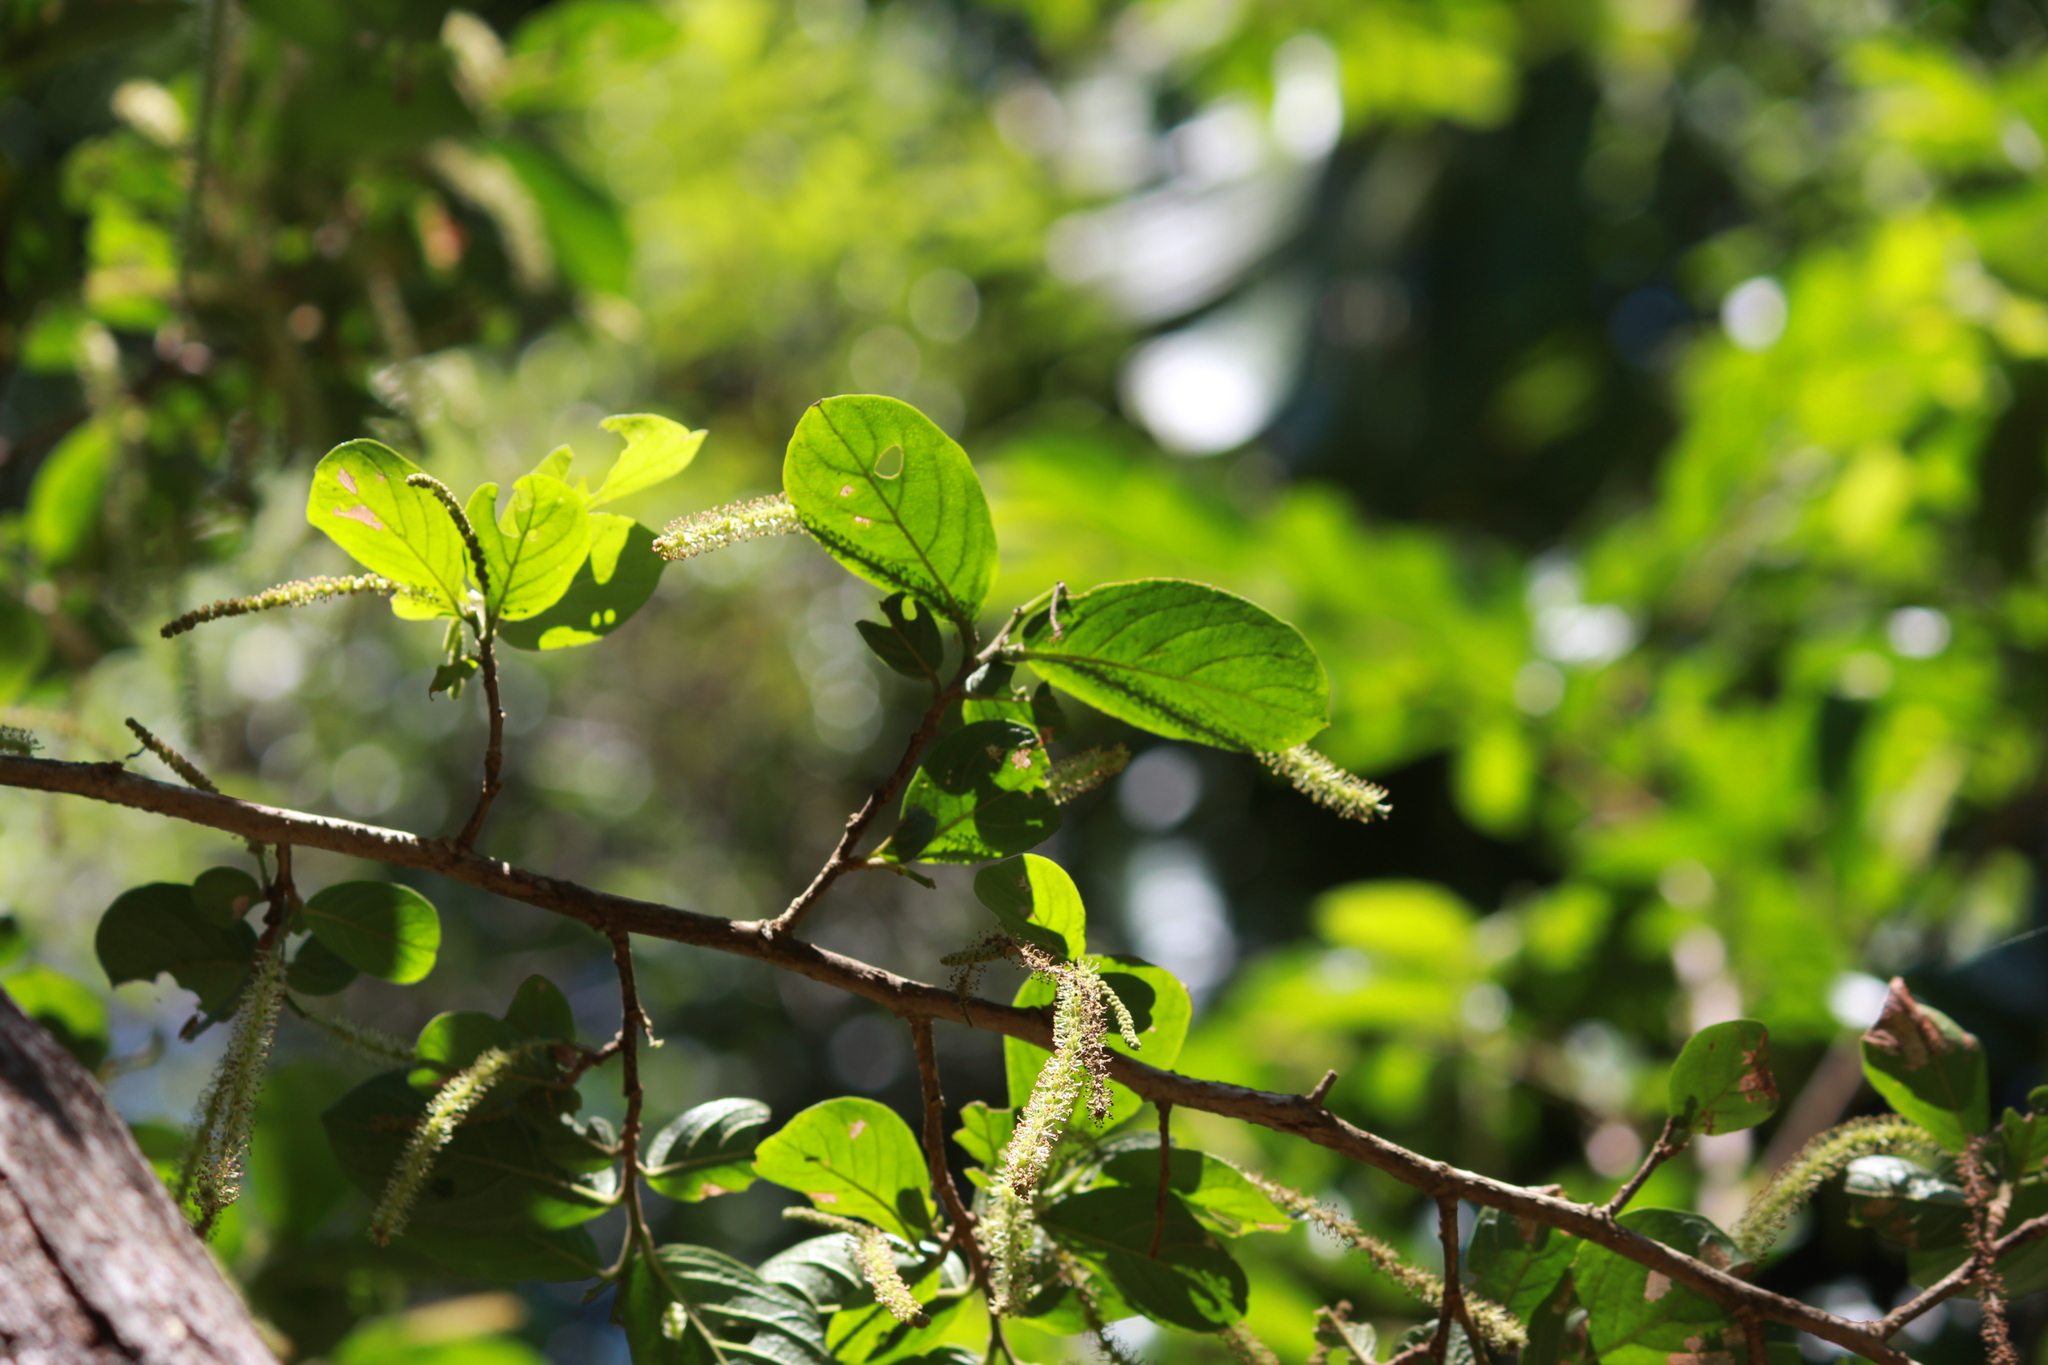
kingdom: Plantae
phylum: Tracheophyta
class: Magnoliopsida
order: Malpighiales
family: Phyllanthaceae
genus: Antidesma
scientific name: Antidesma venosum
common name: Tassel-berry
